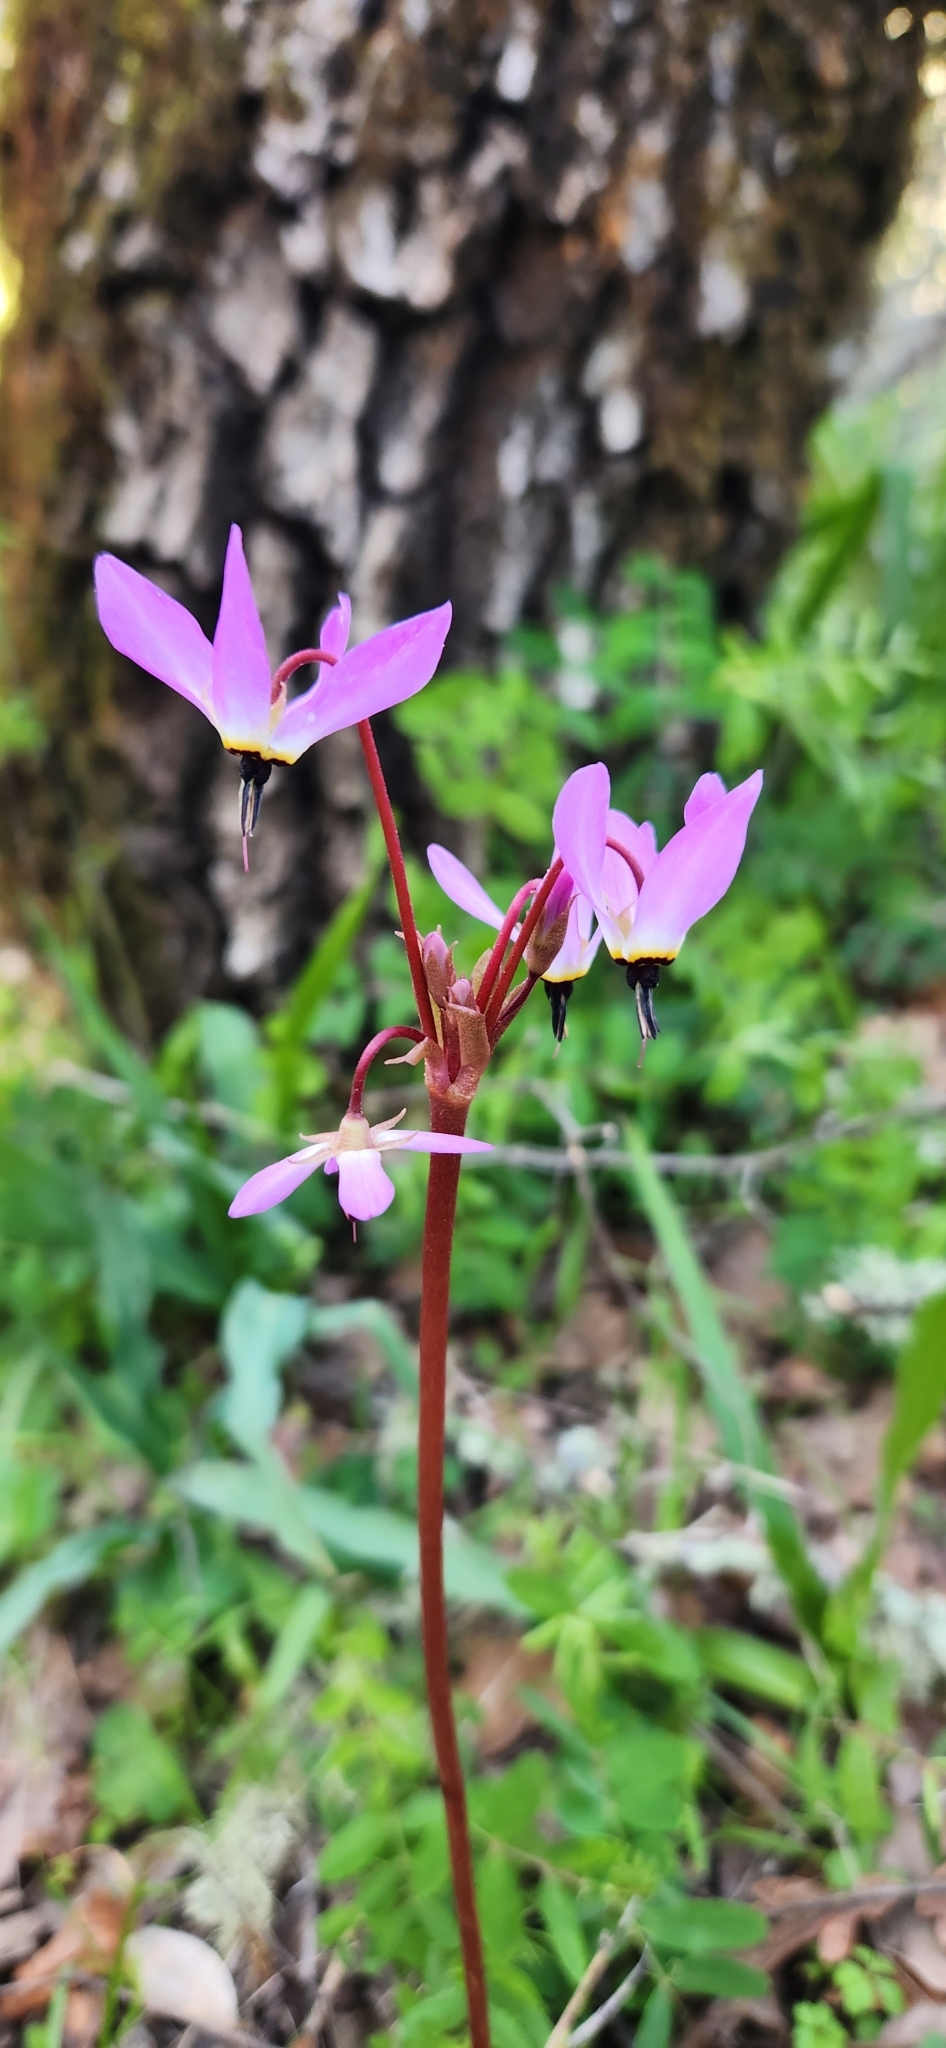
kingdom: Plantae
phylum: Tracheophyta
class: Magnoliopsida
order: Ericales
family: Primulaceae
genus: Dodecatheon
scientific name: Dodecatheon hendersonii
